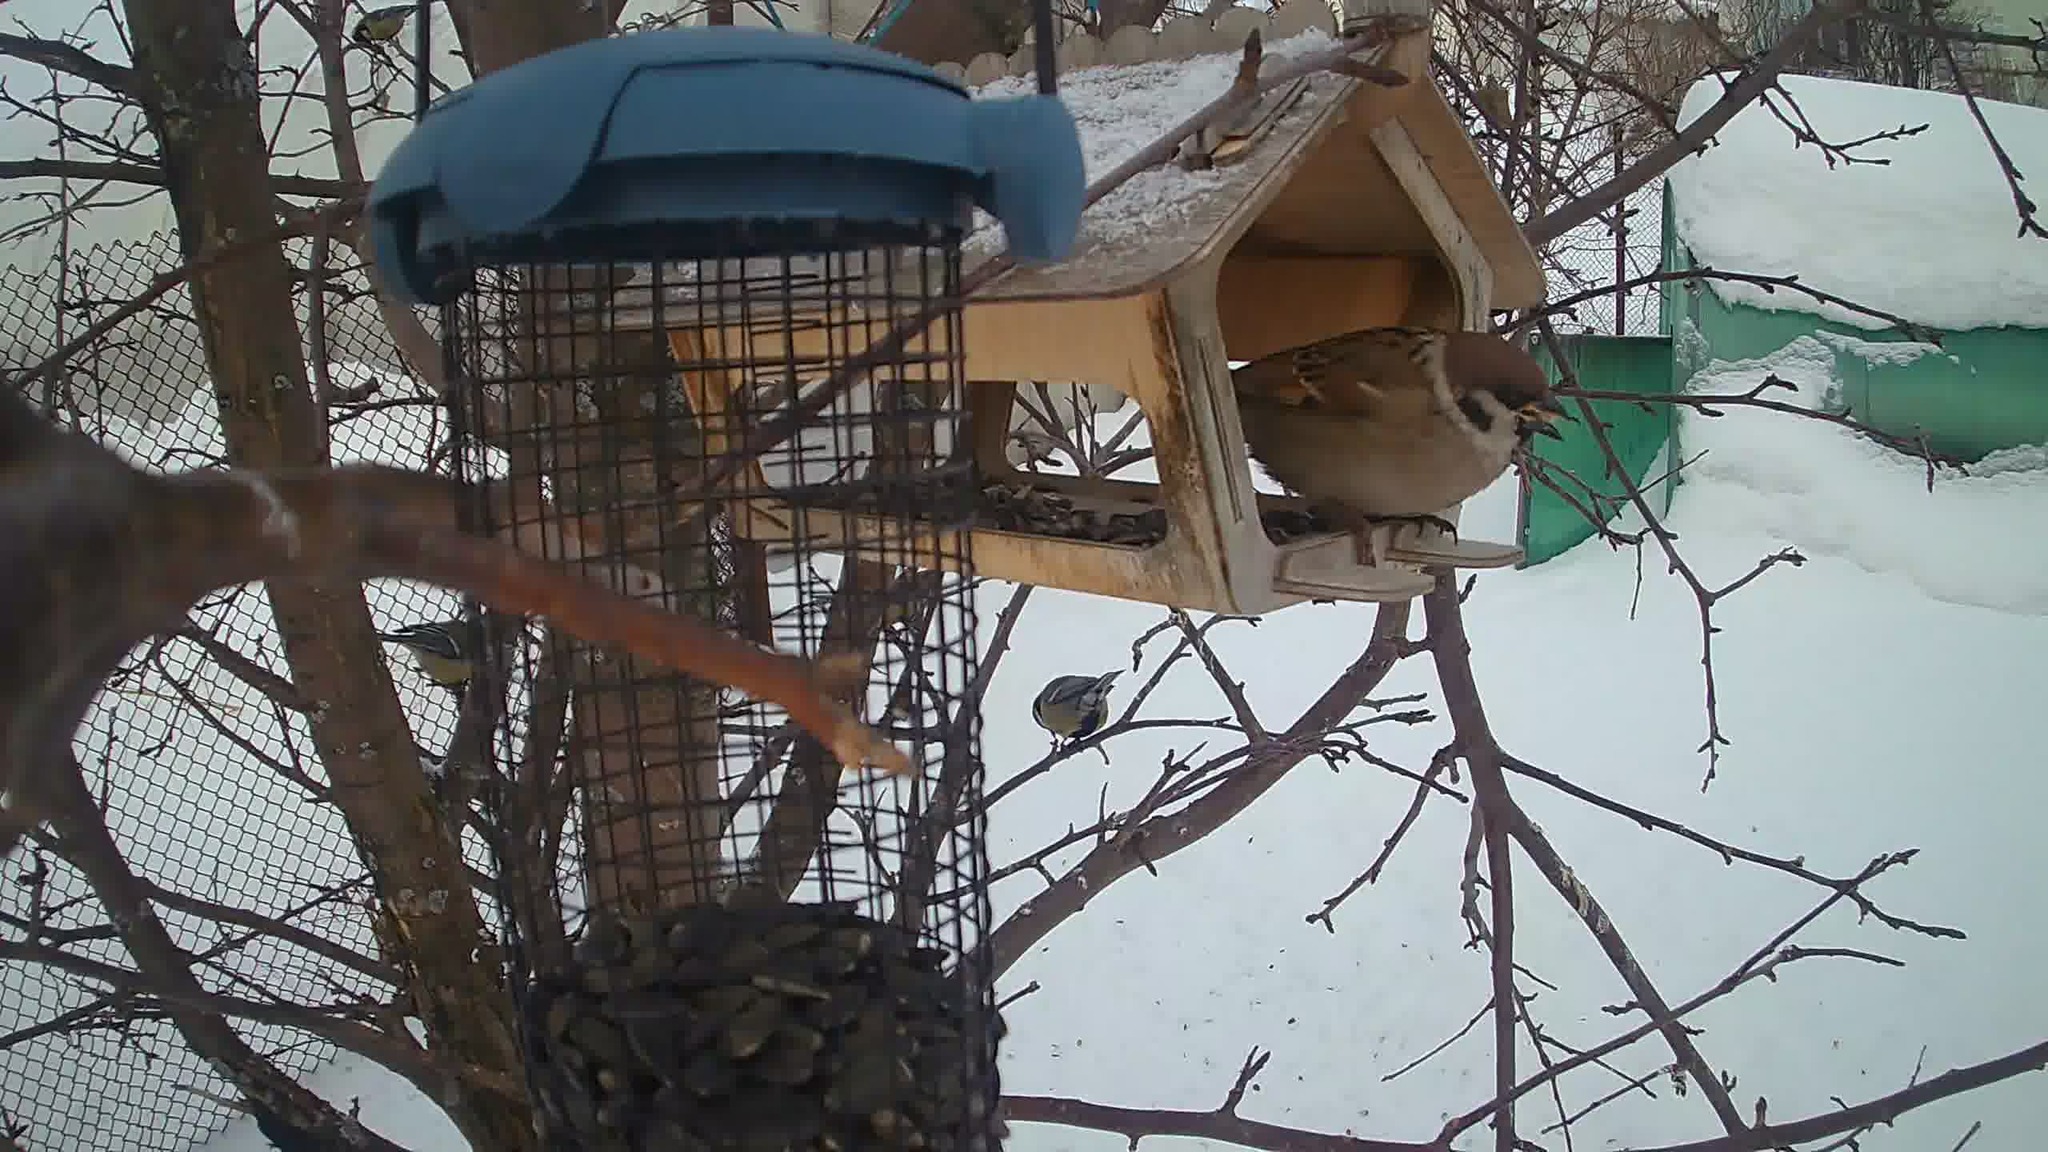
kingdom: Animalia
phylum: Chordata
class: Aves
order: Passeriformes
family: Passeridae
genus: Passer
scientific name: Passer montanus
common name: Eurasian tree sparrow
